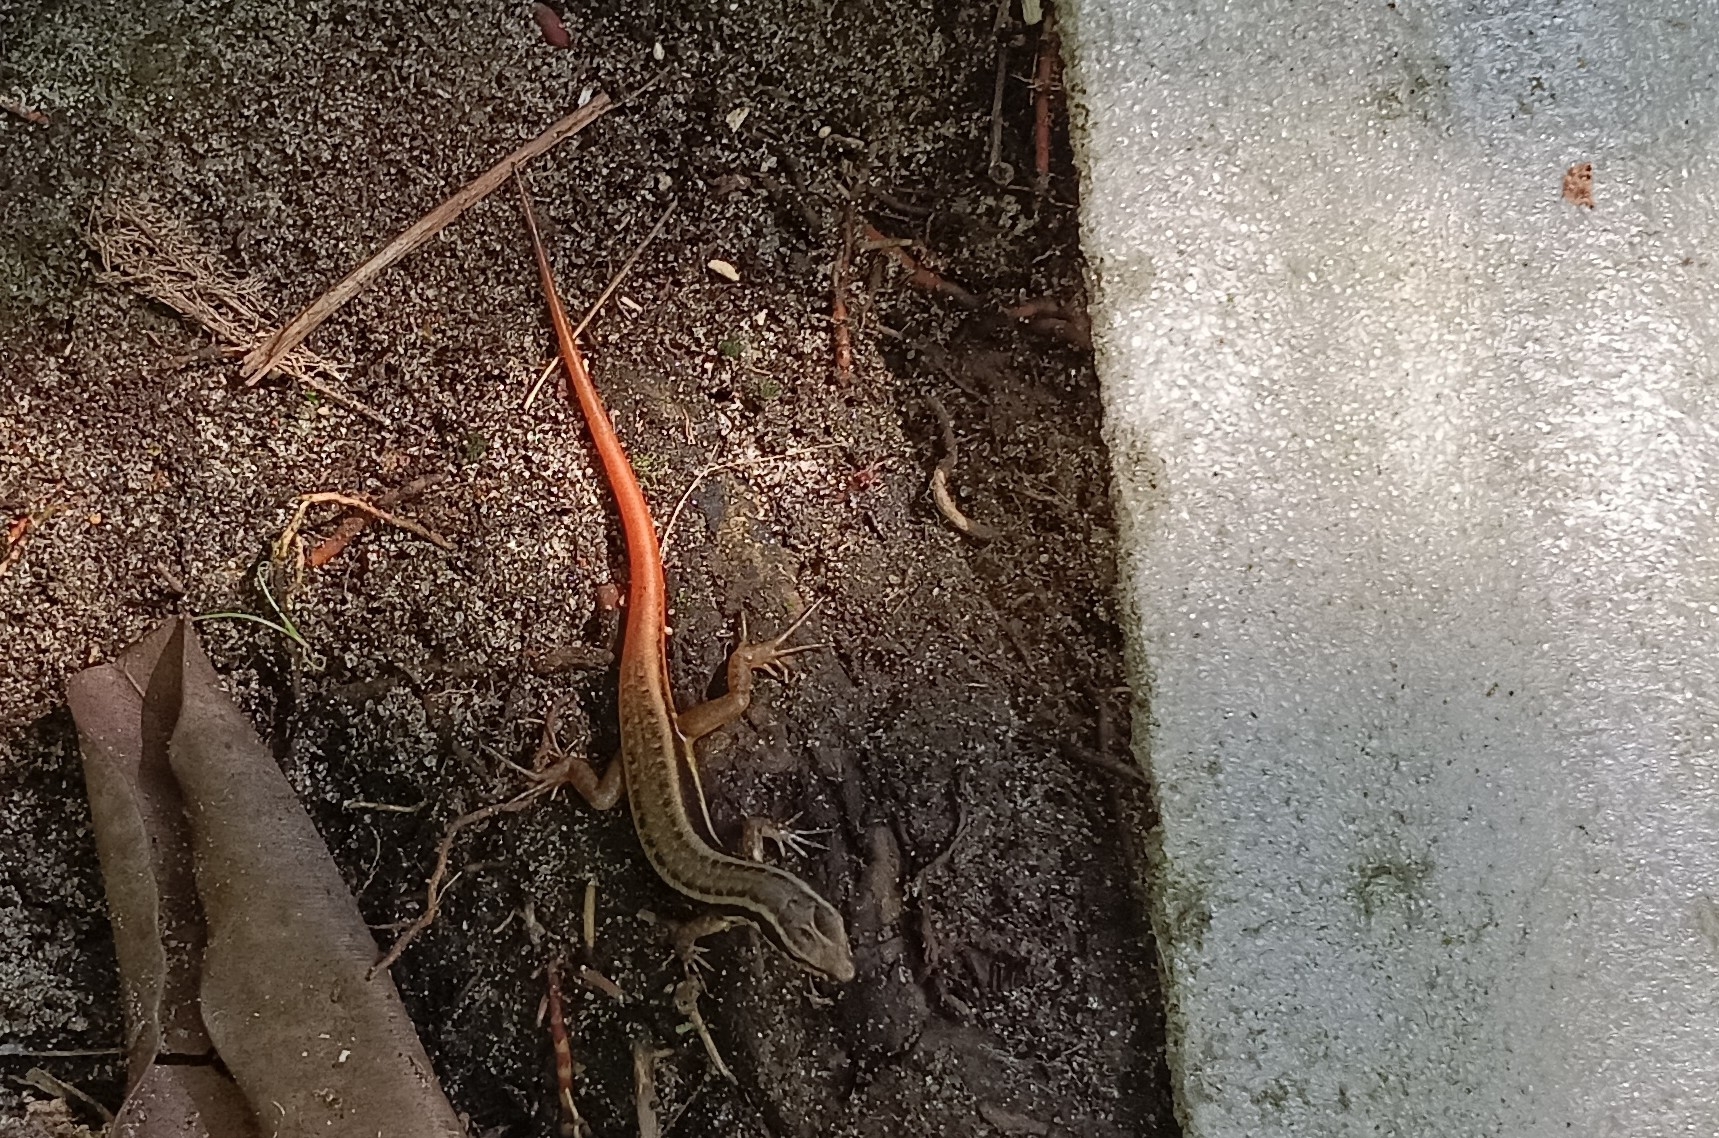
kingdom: Animalia
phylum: Chordata
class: Squamata
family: Scincidae
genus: Sphenomorphus
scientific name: Sphenomorphus dussumieri
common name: Dussumier's forest skink
